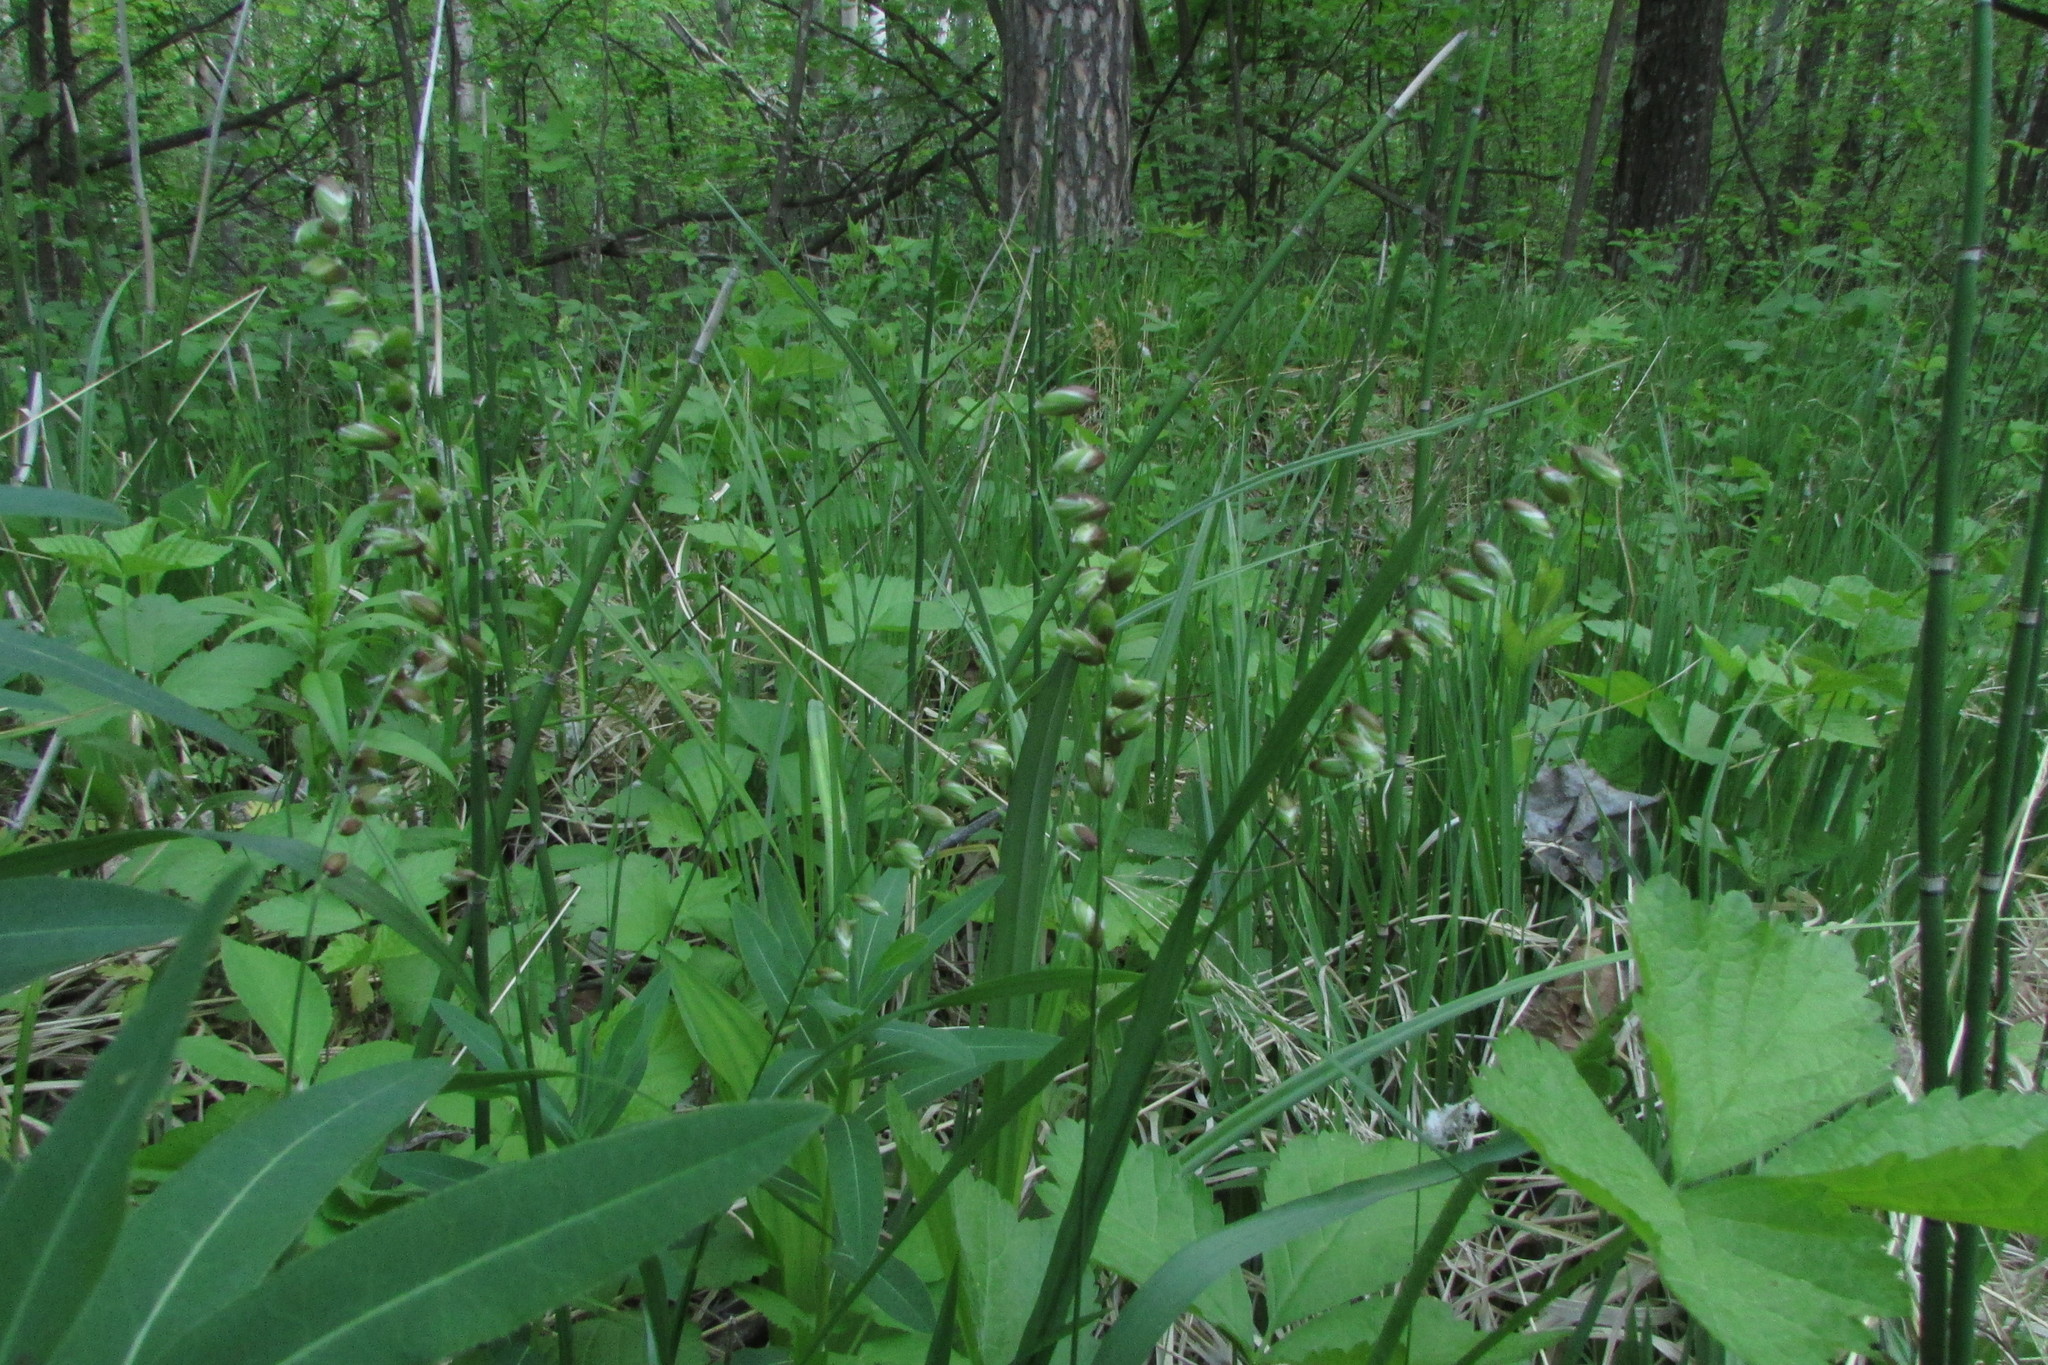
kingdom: Plantae
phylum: Tracheophyta
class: Liliopsida
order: Poales
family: Poaceae
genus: Melica
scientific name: Melica nutans
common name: Mountain melick
